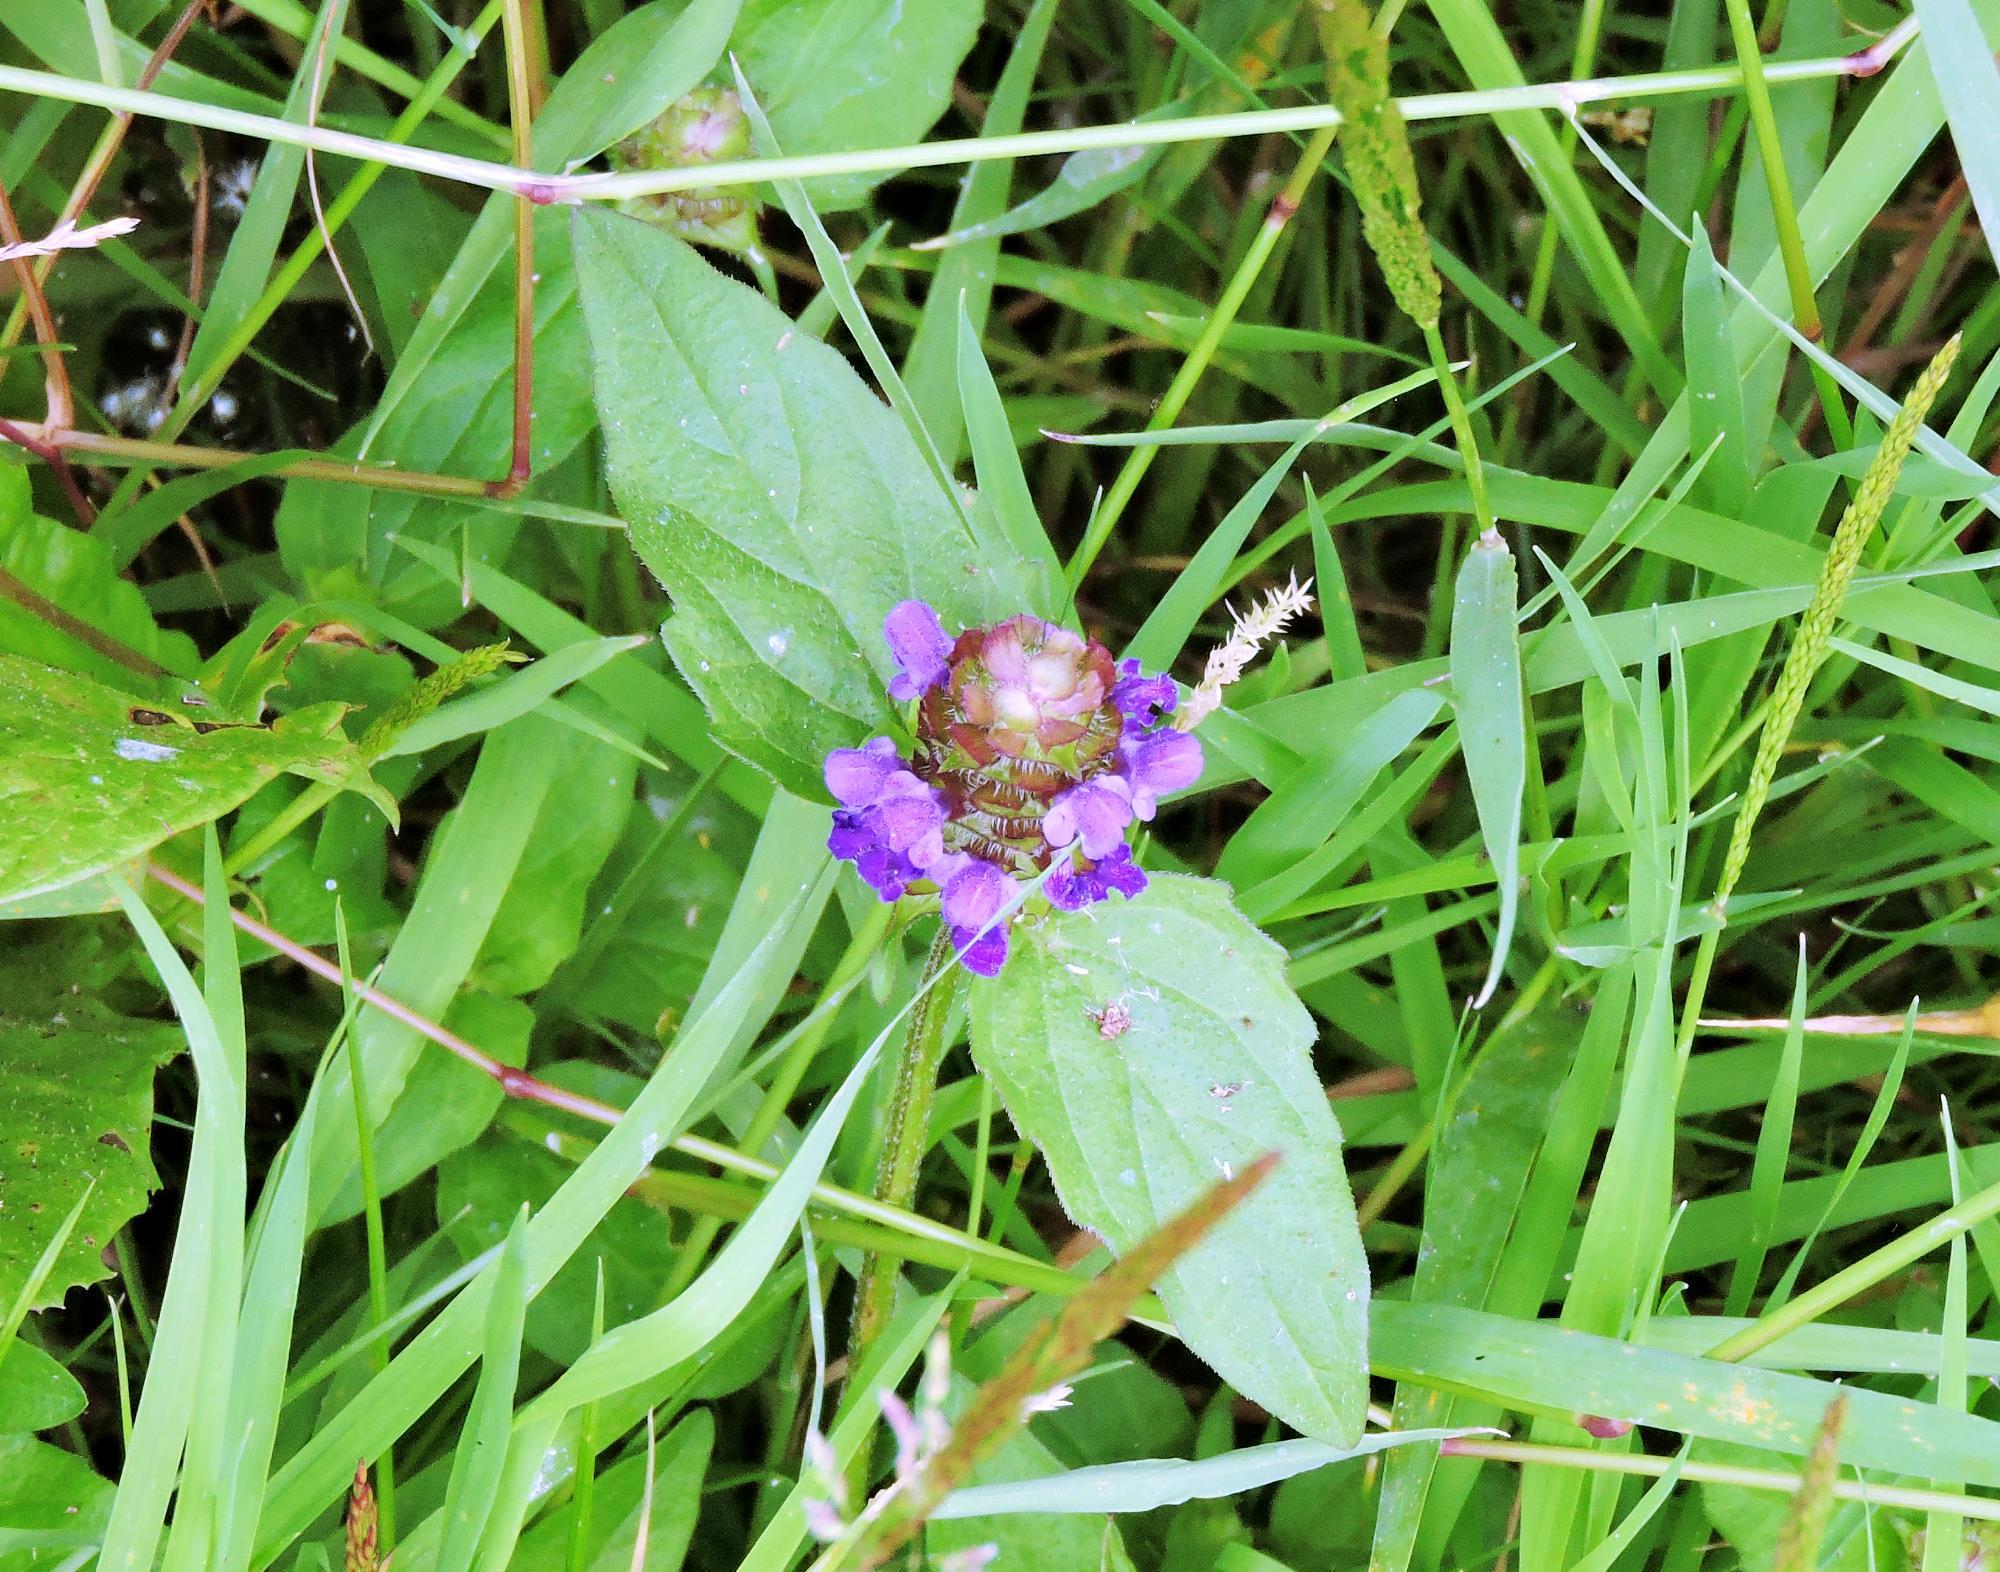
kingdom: Plantae
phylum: Tracheophyta
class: Magnoliopsida
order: Lamiales
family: Lamiaceae
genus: Prunella
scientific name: Prunella vulgaris
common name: Heal-all
